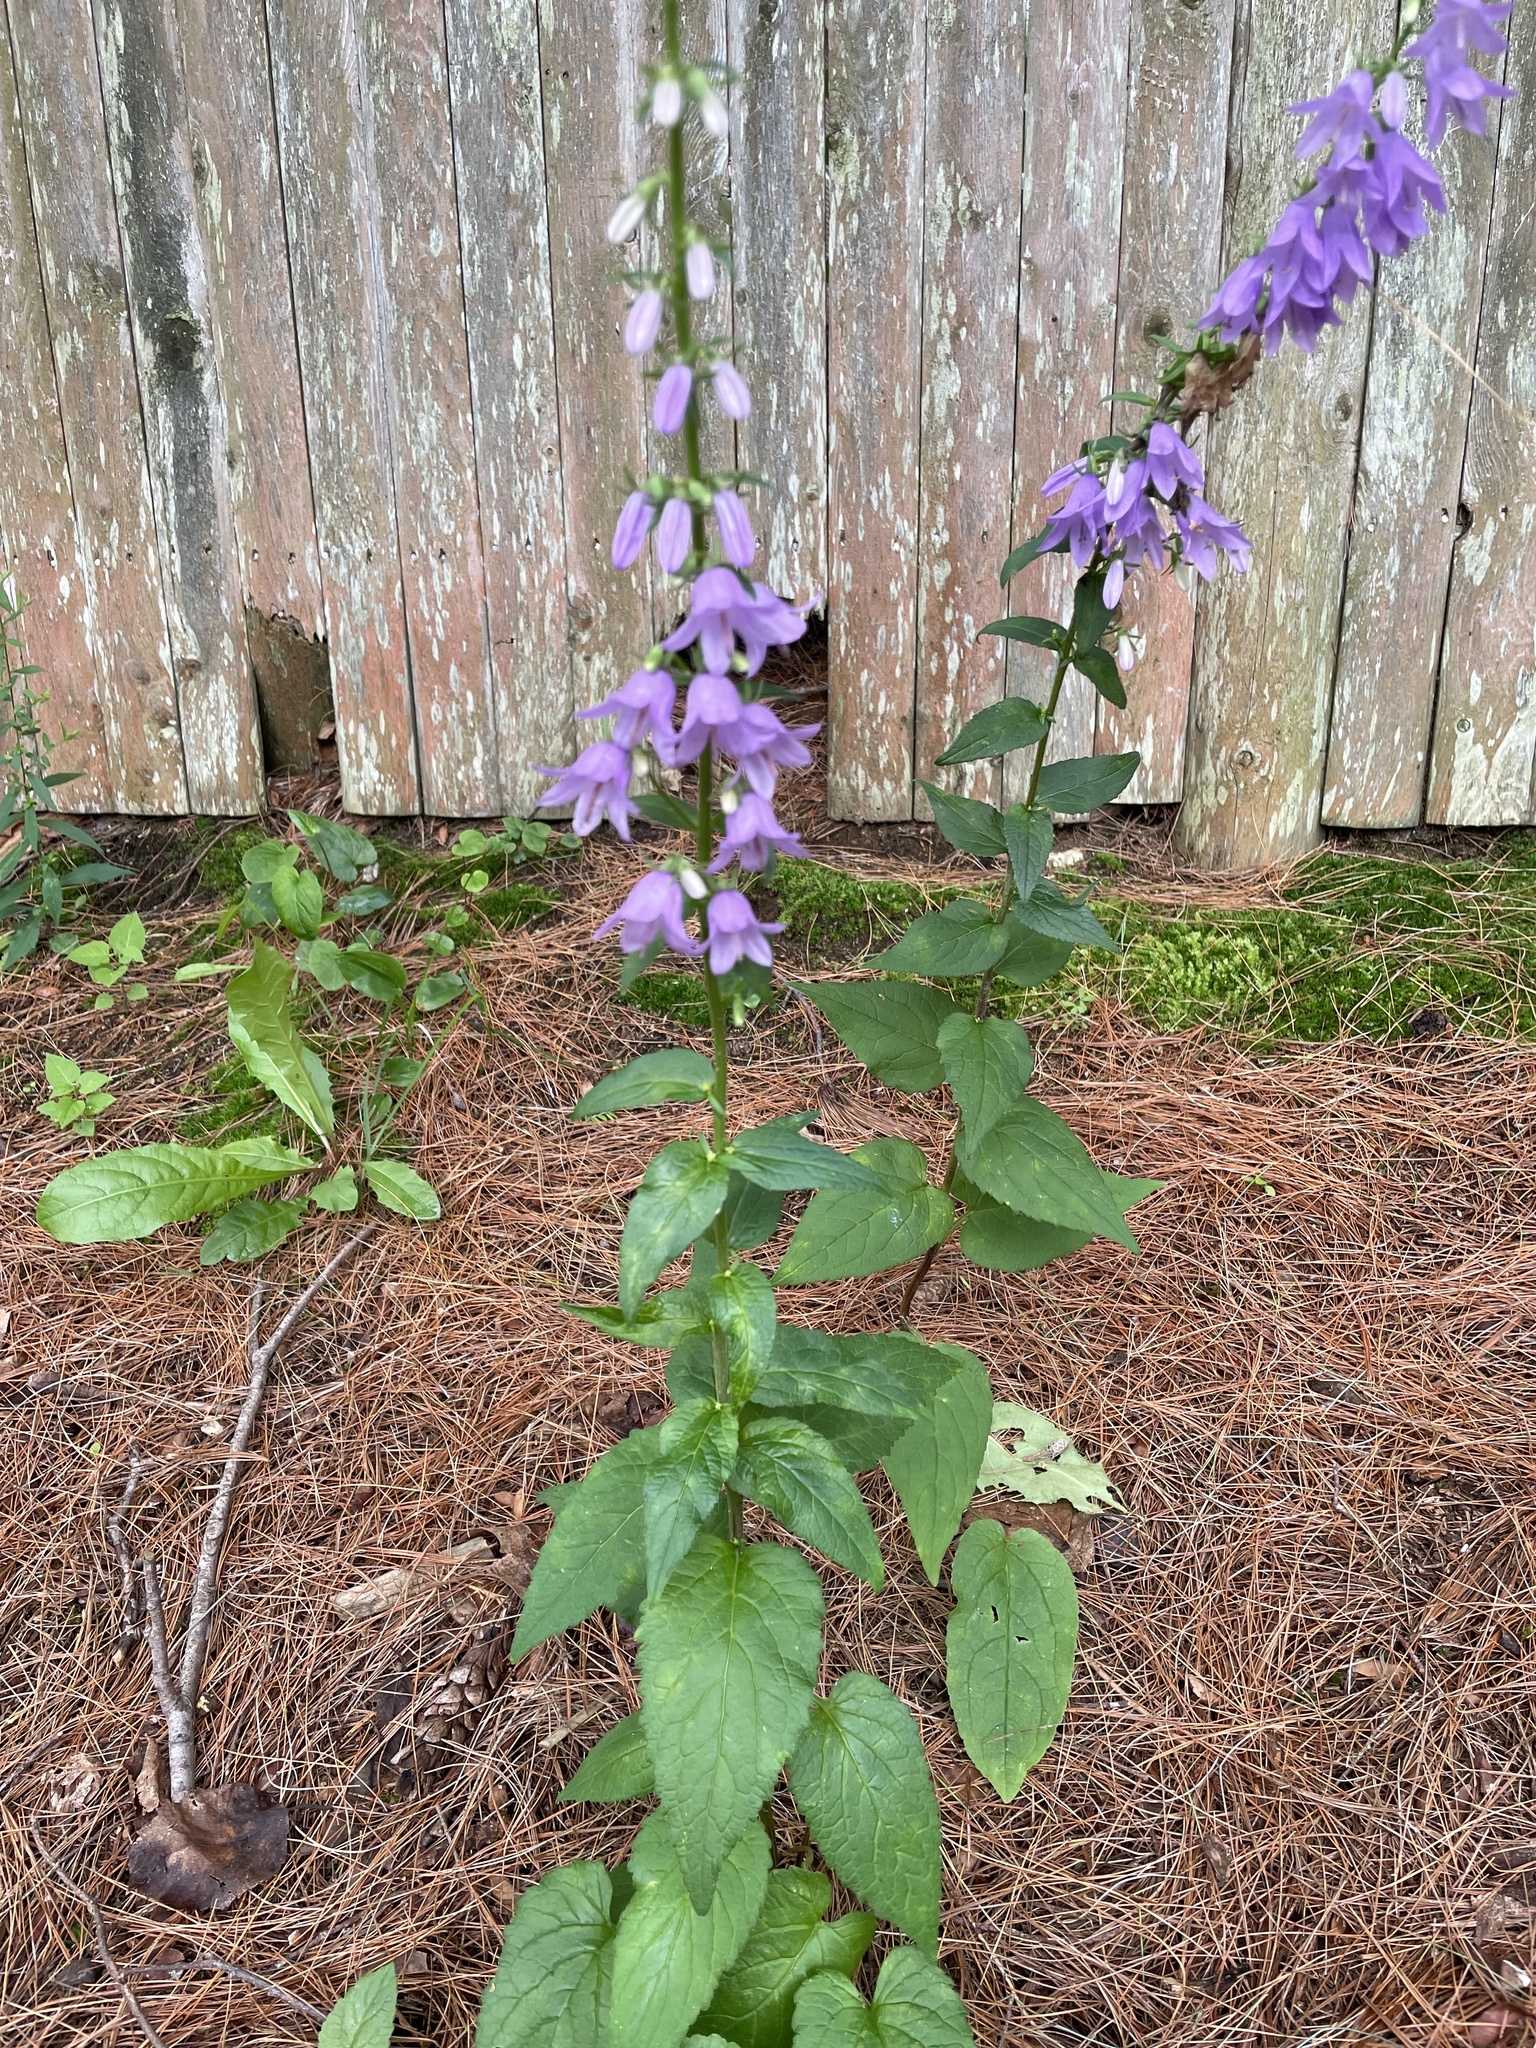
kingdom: Plantae
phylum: Tracheophyta
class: Magnoliopsida
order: Asterales
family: Campanulaceae
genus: Campanula
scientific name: Campanula rapunculoides
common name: Creeping bellflower
